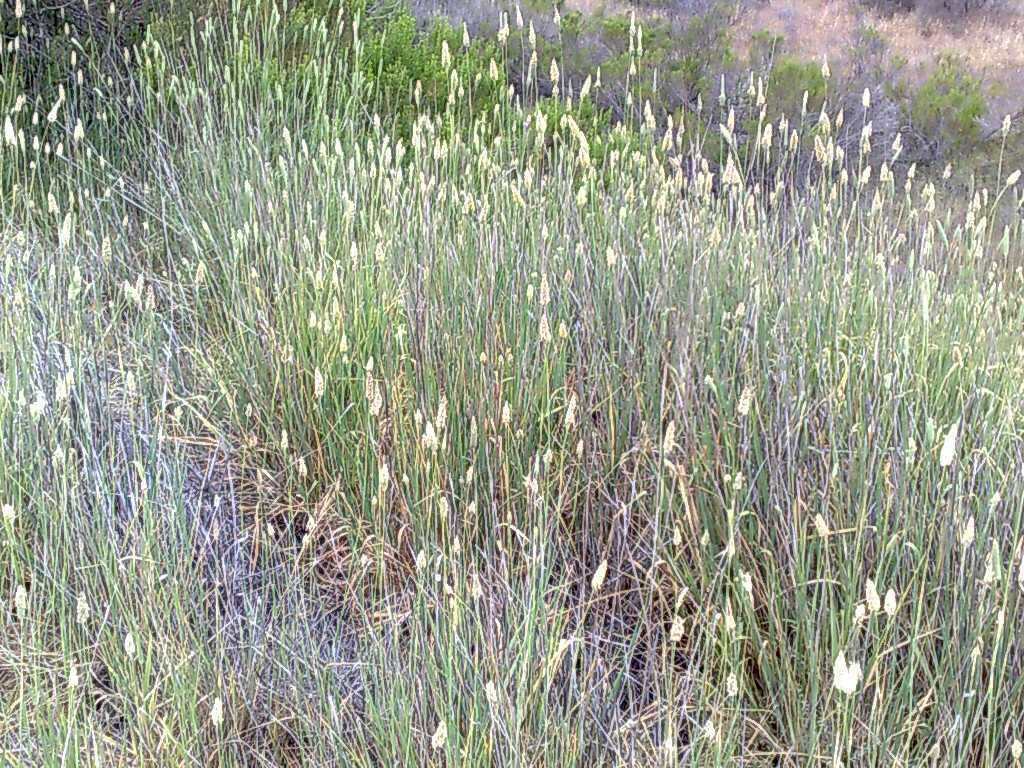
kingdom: Plantae
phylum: Tracheophyta
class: Liliopsida
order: Poales
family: Poaceae
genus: Phalaris
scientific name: Phalaris aquatica
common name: Bulbous canary-grass
